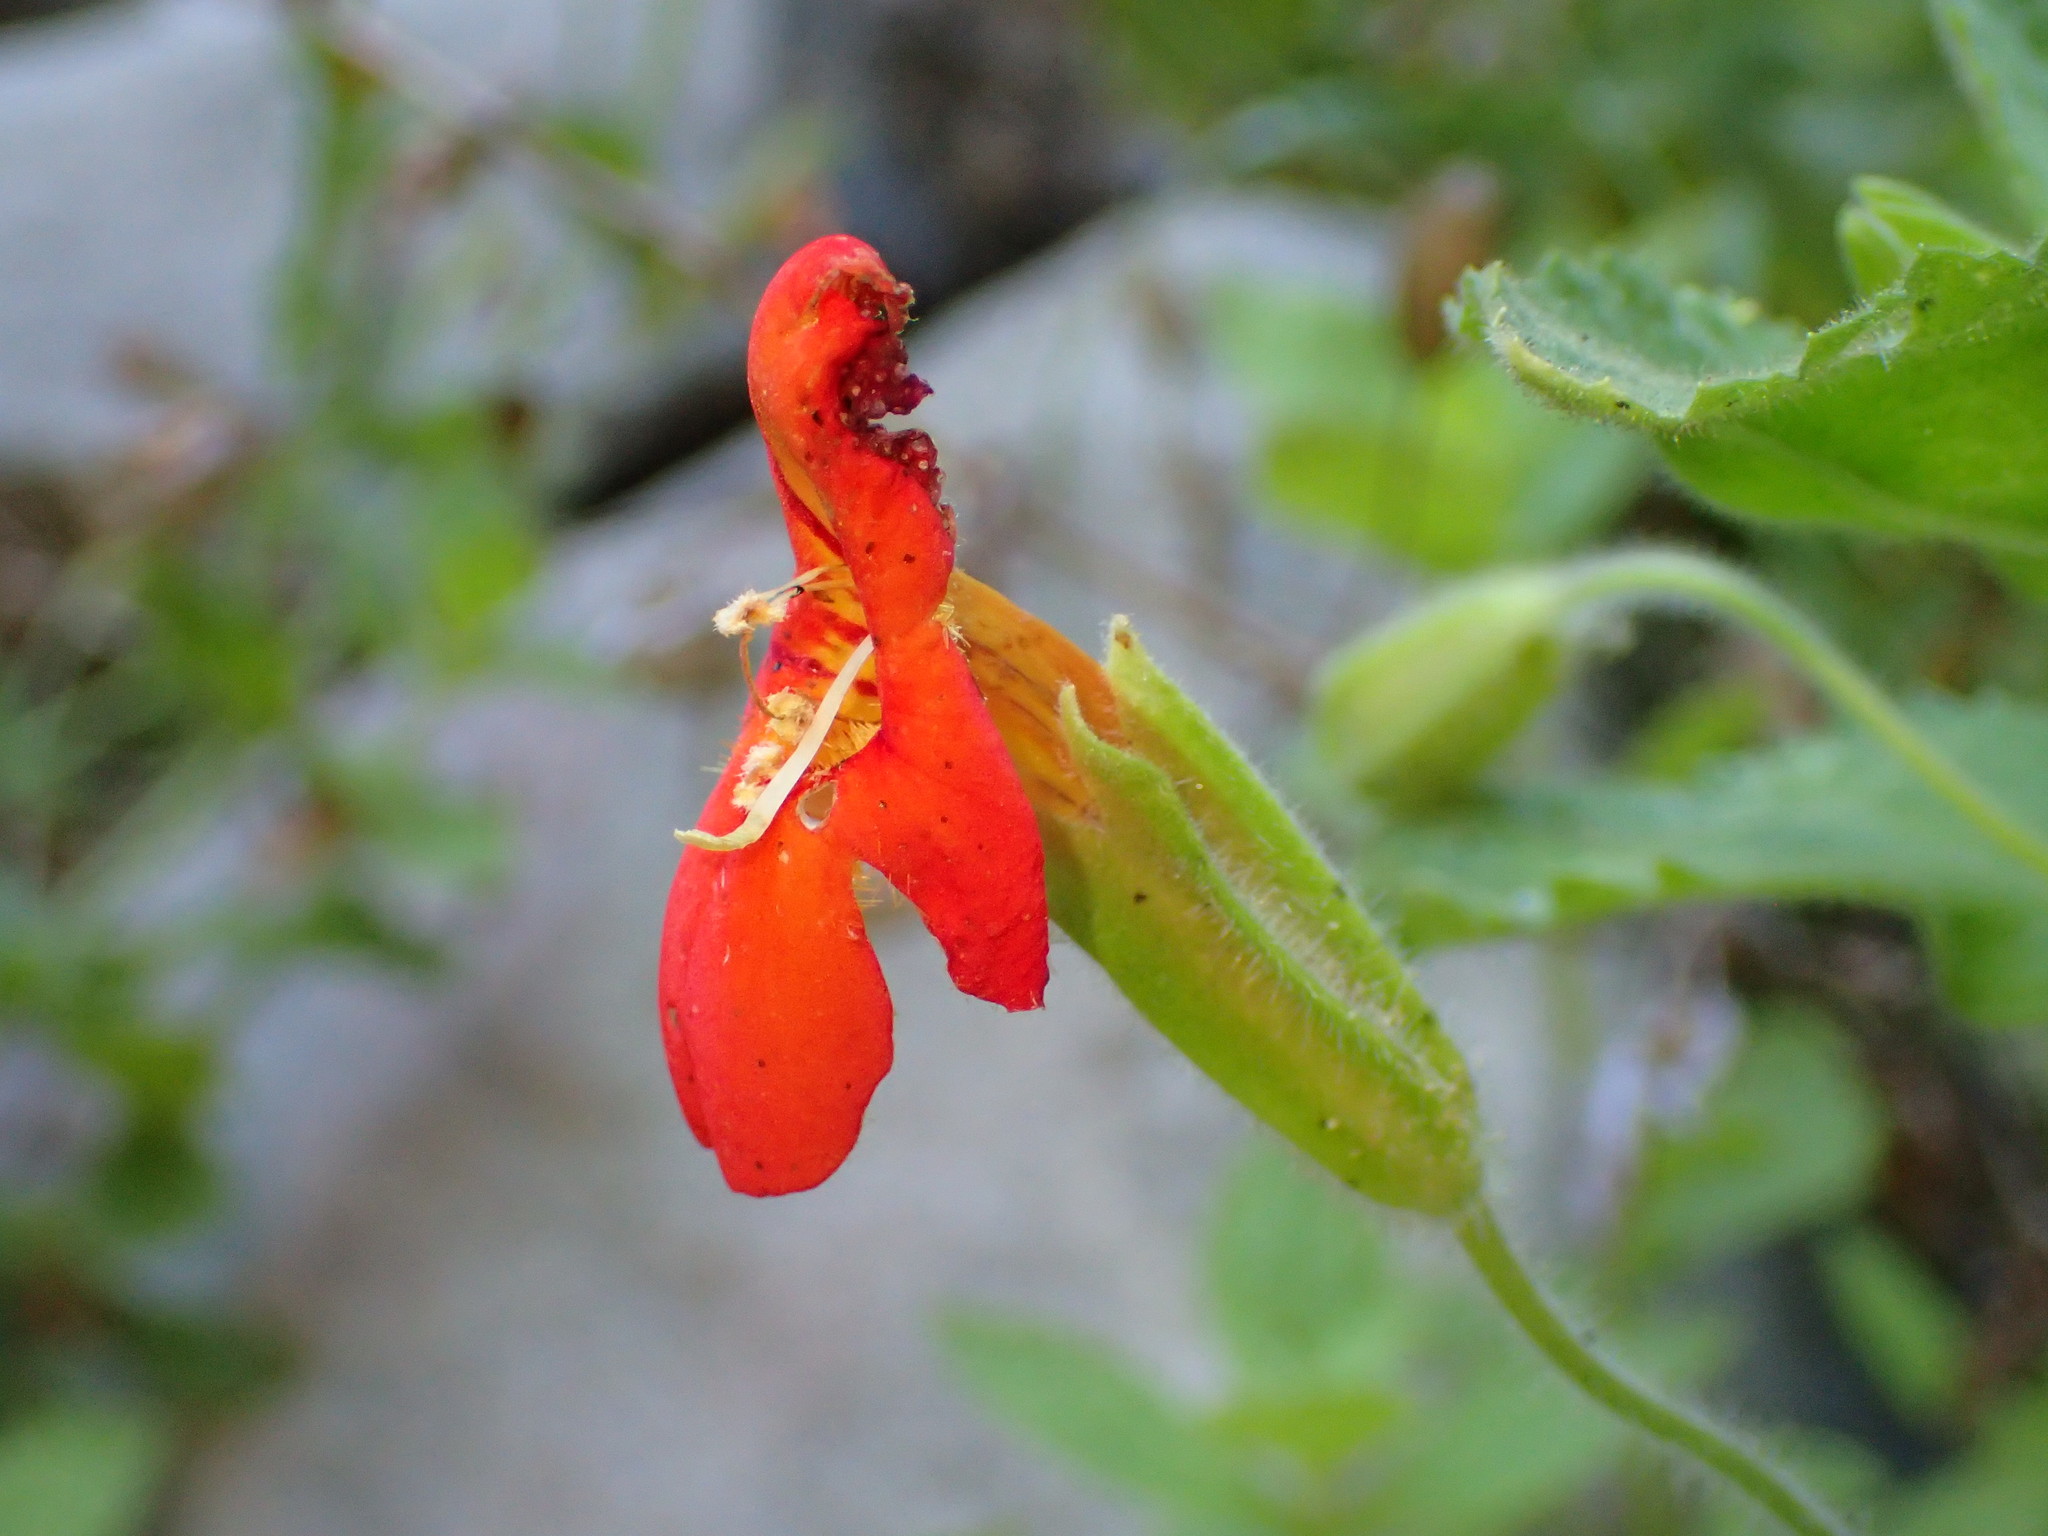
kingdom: Plantae
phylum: Tracheophyta
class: Magnoliopsida
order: Lamiales
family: Phrymaceae
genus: Erythranthe
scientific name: Erythranthe cardinalis
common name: Scarlet monkey-flower
